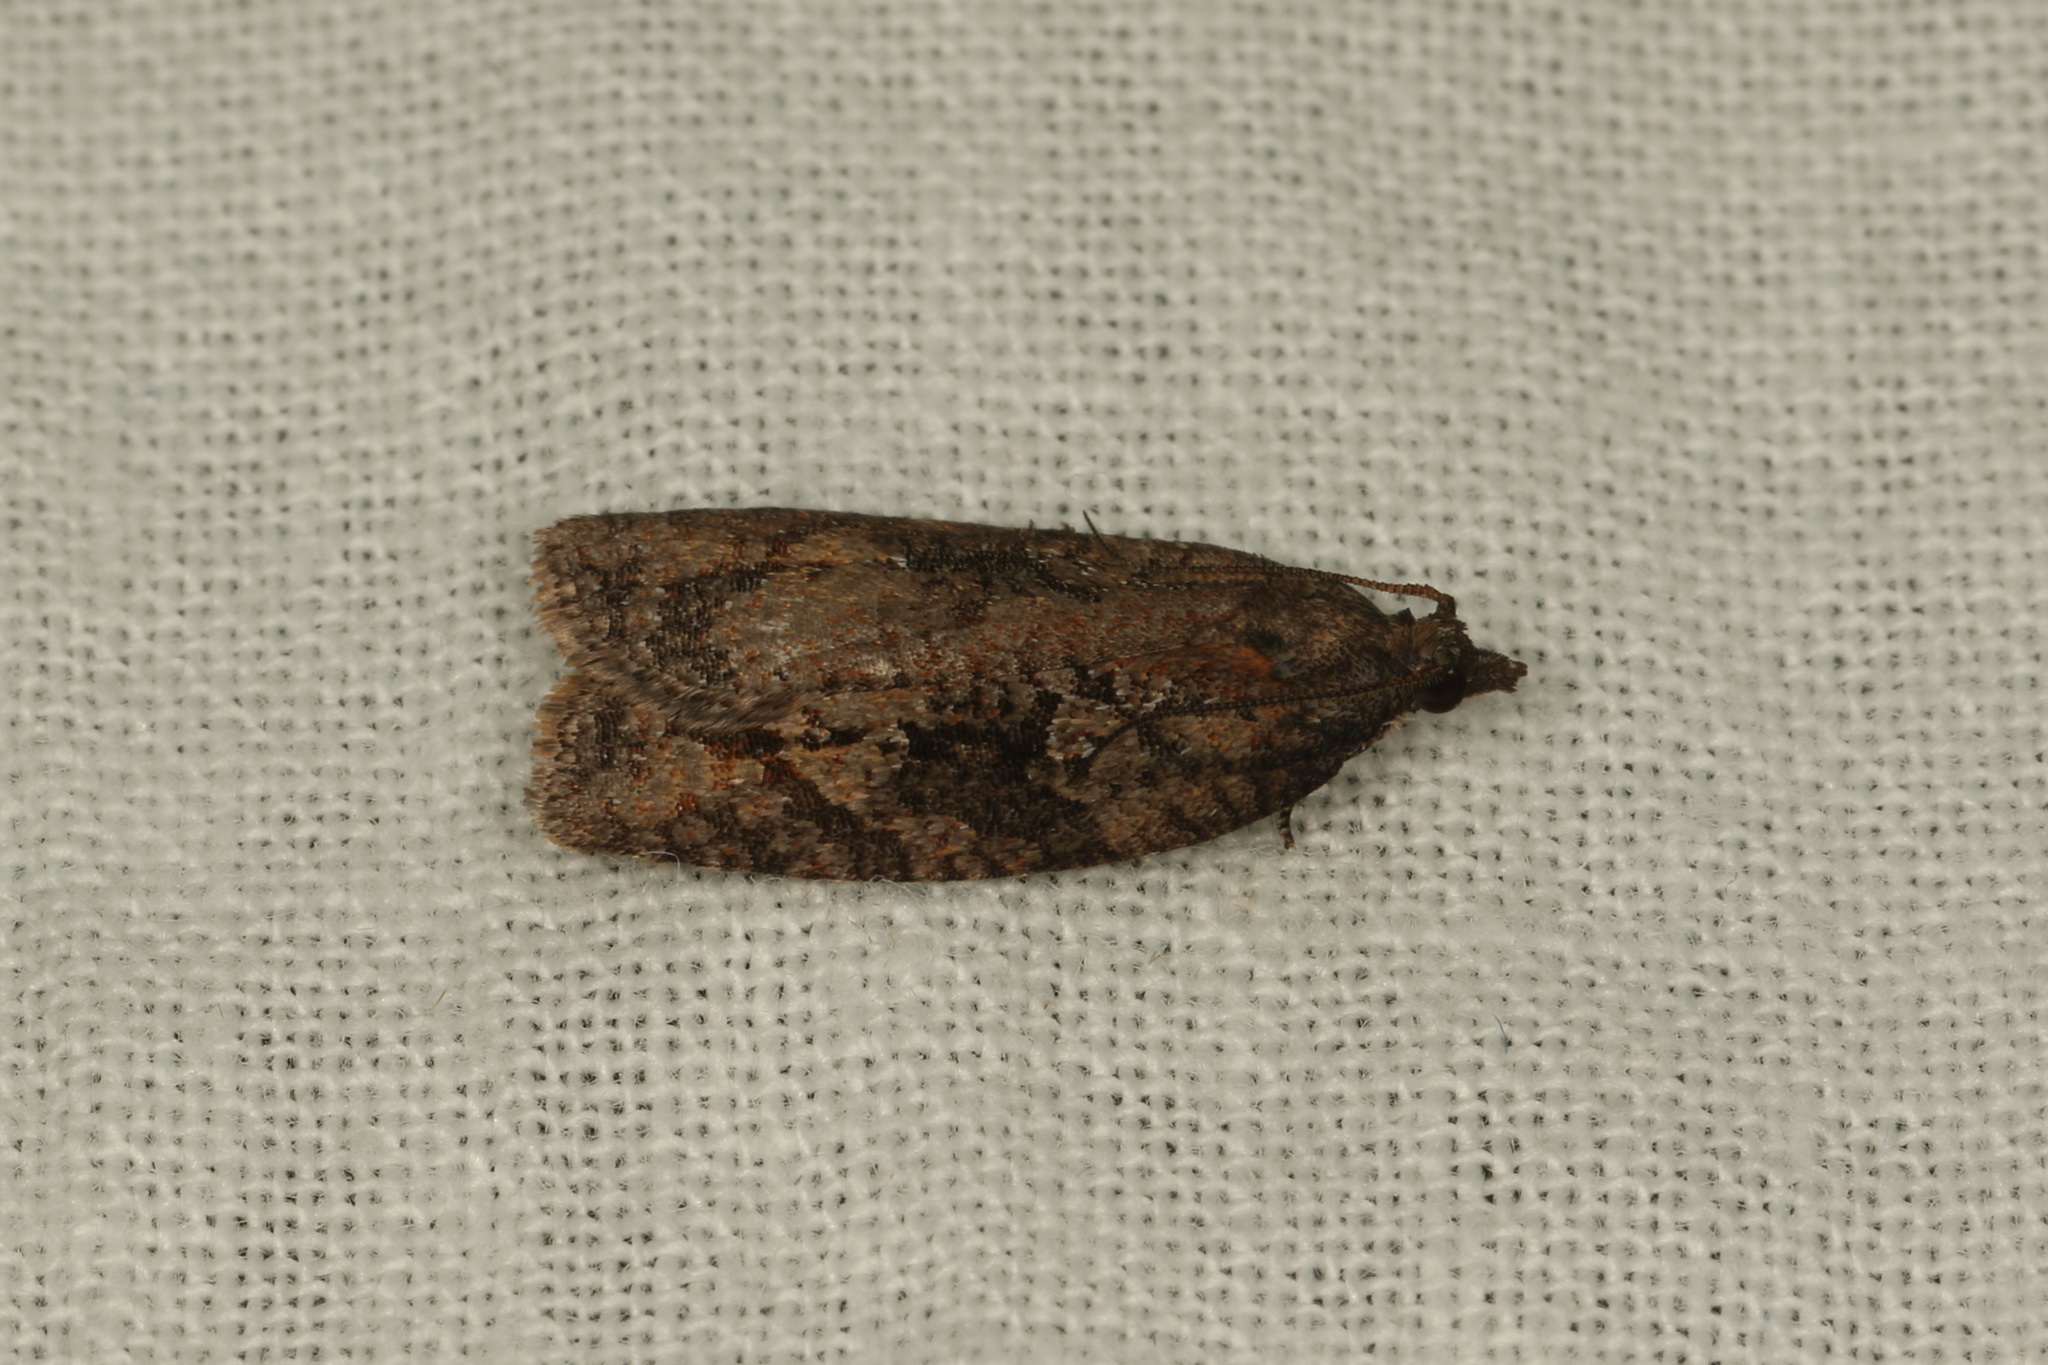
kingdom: Animalia
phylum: Arthropoda
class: Insecta
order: Lepidoptera
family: Tortricidae
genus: Thrincophora
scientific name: Thrincophora impletana
